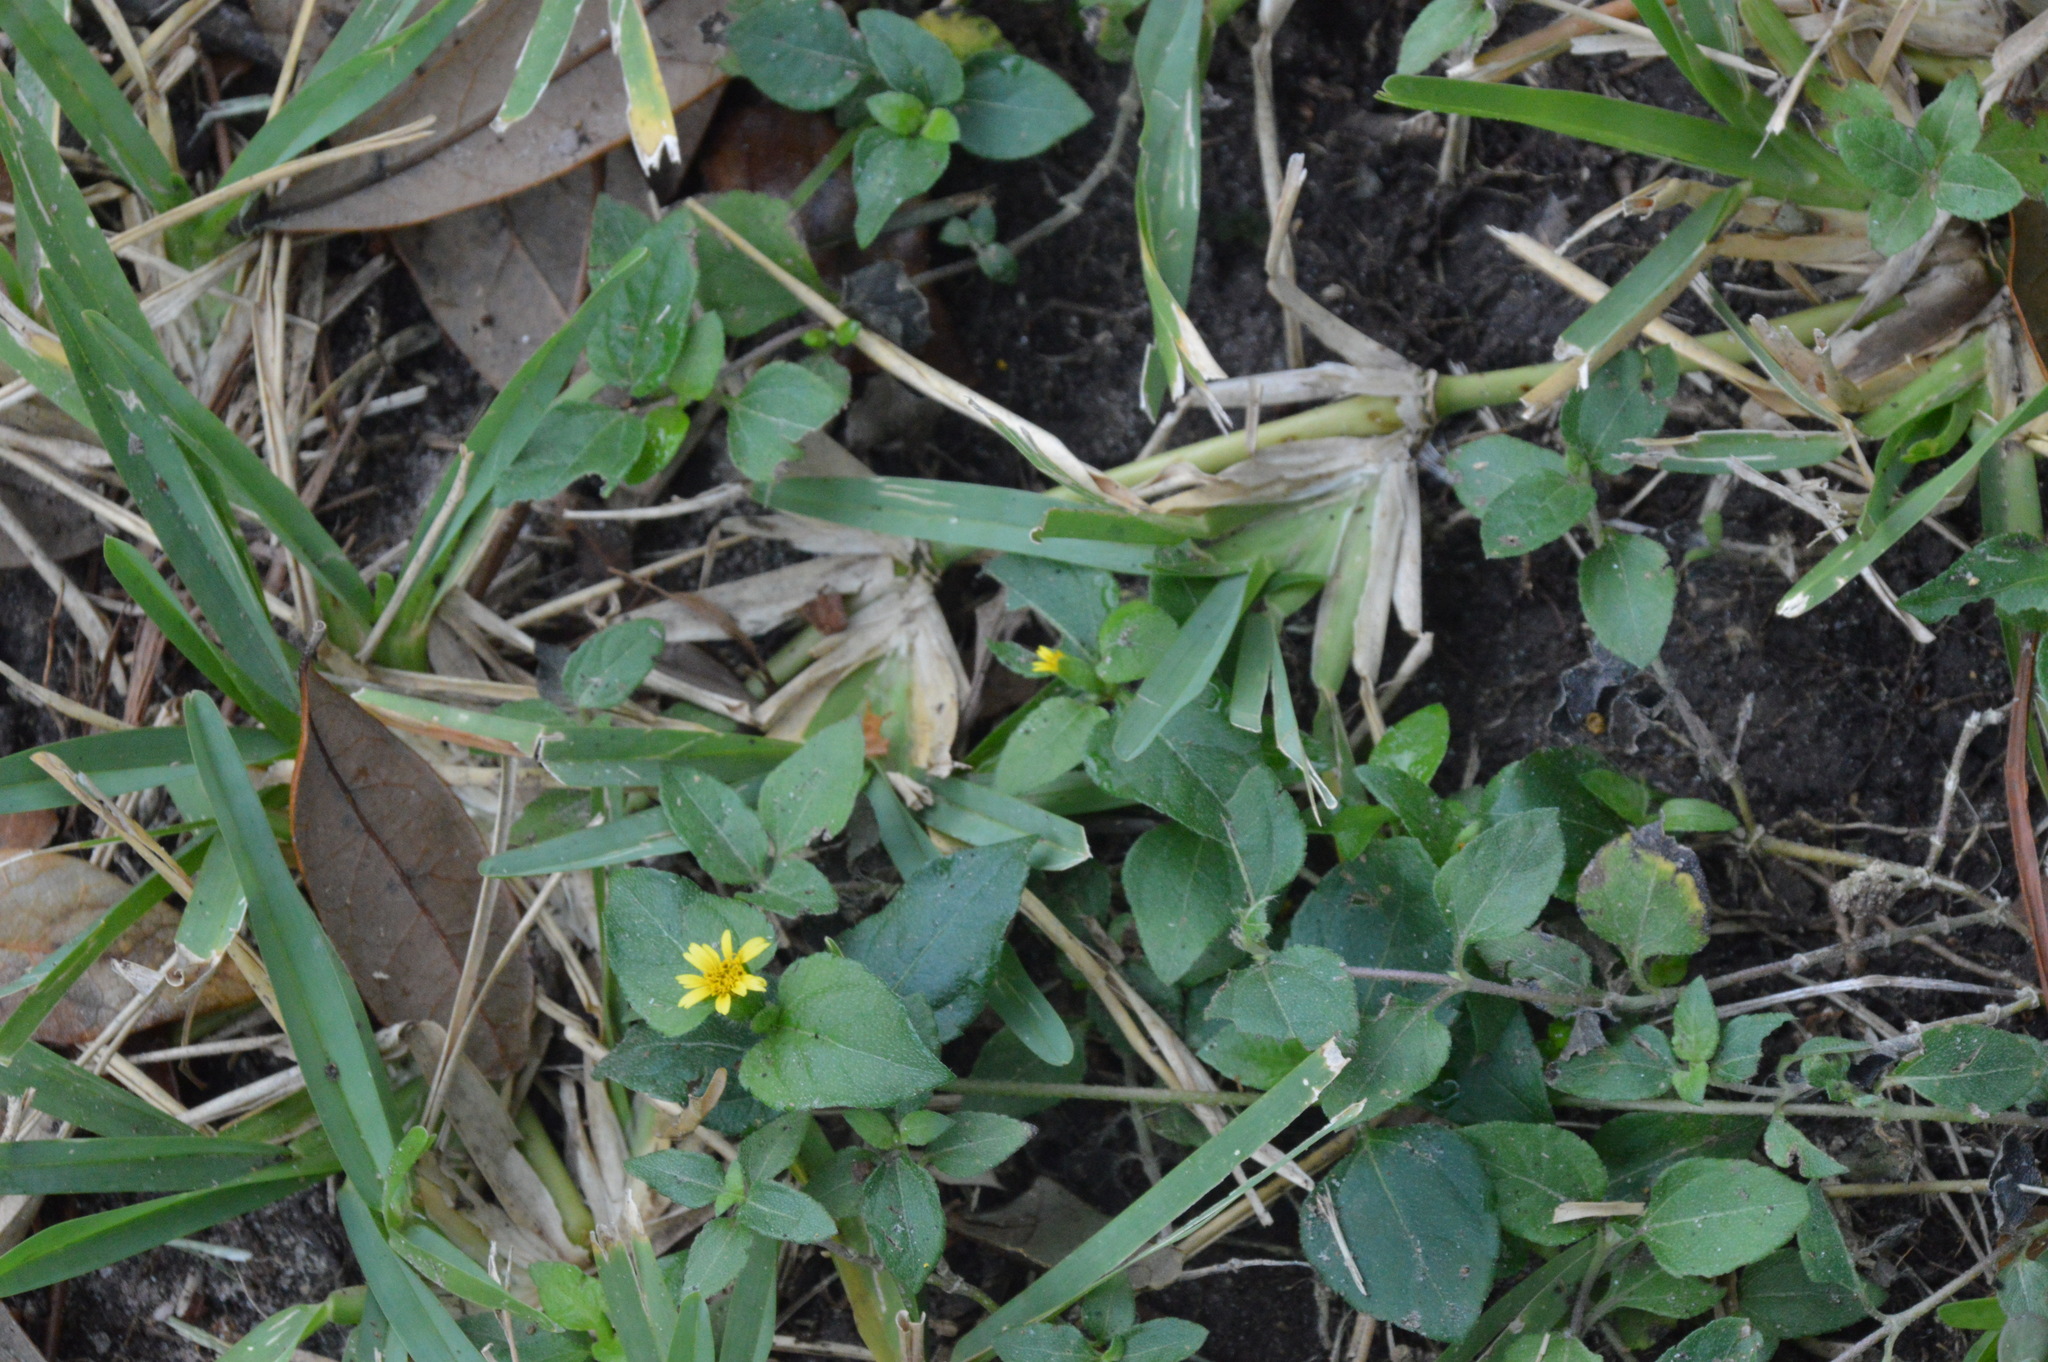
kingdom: Plantae
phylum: Tracheophyta
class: Magnoliopsida
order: Asterales
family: Asteraceae
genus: Calyptocarpus
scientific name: Calyptocarpus vialis
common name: Straggler daisy
